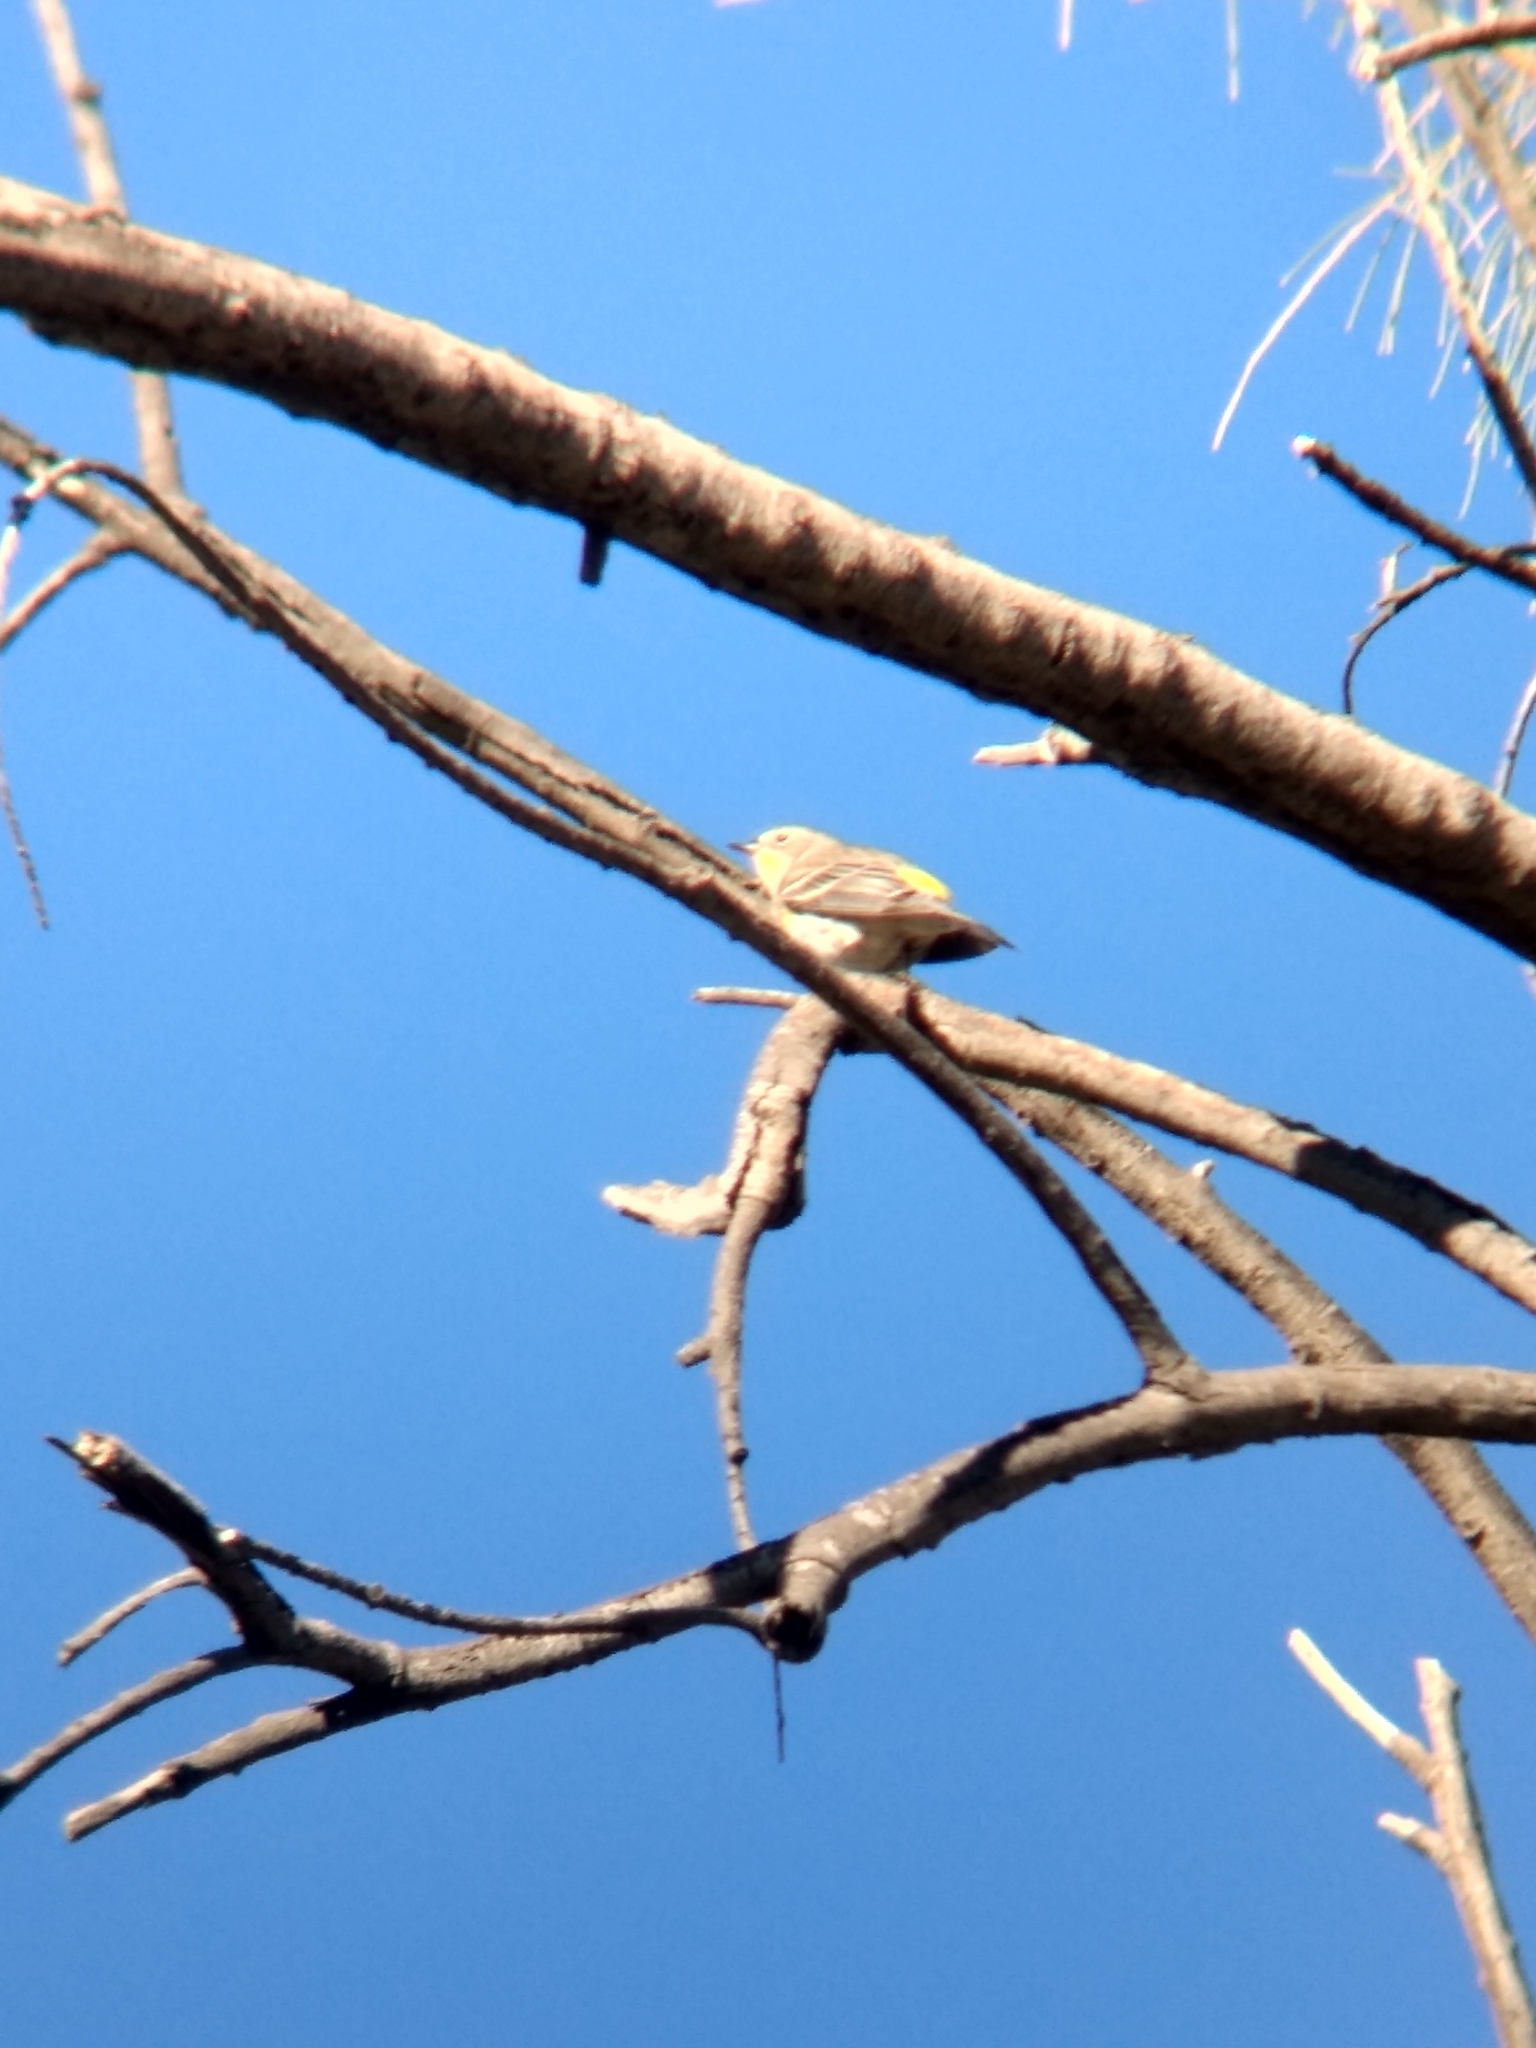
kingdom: Animalia
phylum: Chordata
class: Aves
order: Passeriformes
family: Parulidae
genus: Setophaga
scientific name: Setophaga coronata
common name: Myrtle warbler
